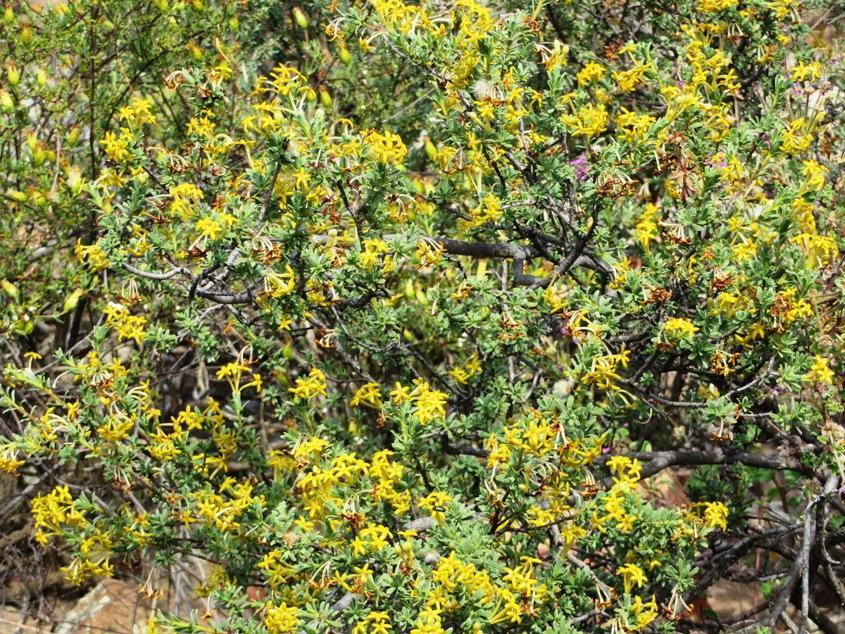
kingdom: Plantae
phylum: Tracheophyta
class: Magnoliopsida
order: Malvales
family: Thymelaeaceae
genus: Gnidia
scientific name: Gnidia deserticola
